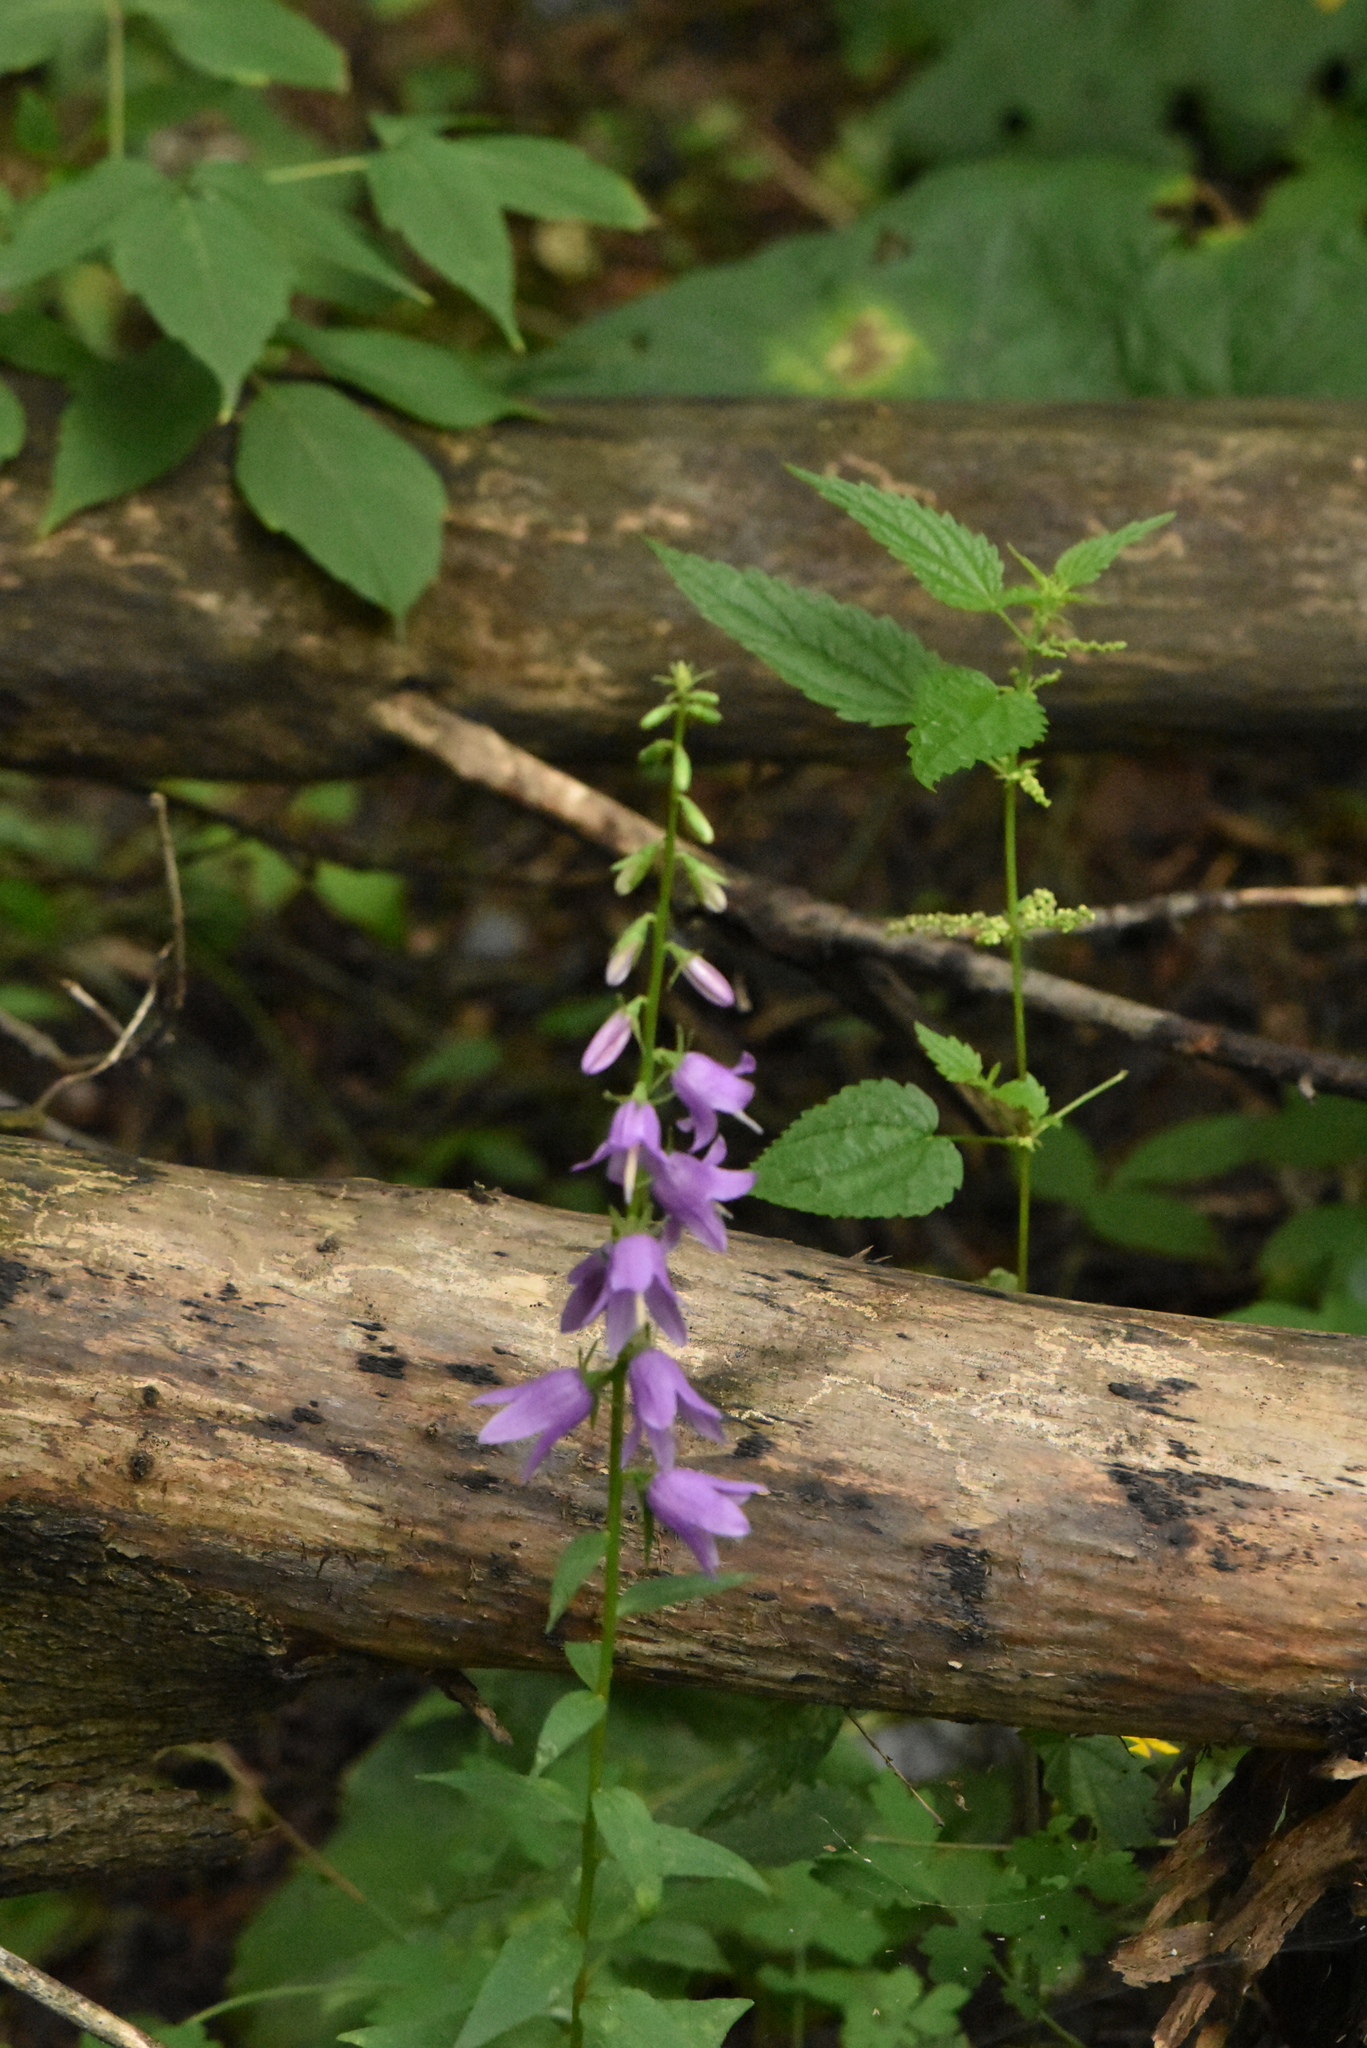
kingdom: Plantae
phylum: Tracheophyta
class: Magnoliopsida
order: Asterales
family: Campanulaceae
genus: Campanula
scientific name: Campanula rapunculoides
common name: Creeping bellflower
